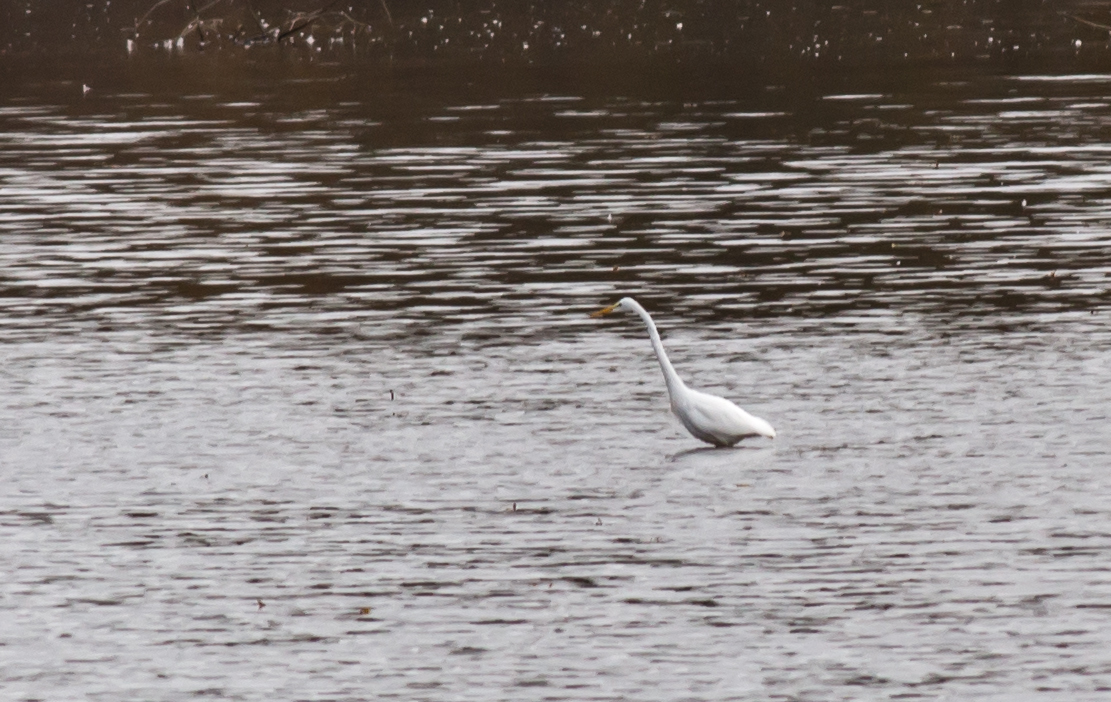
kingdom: Animalia
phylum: Chordata
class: Aves
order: Pelecaniformes
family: Ardeidae
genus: Ardea
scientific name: Ardea alba
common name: Great egret
